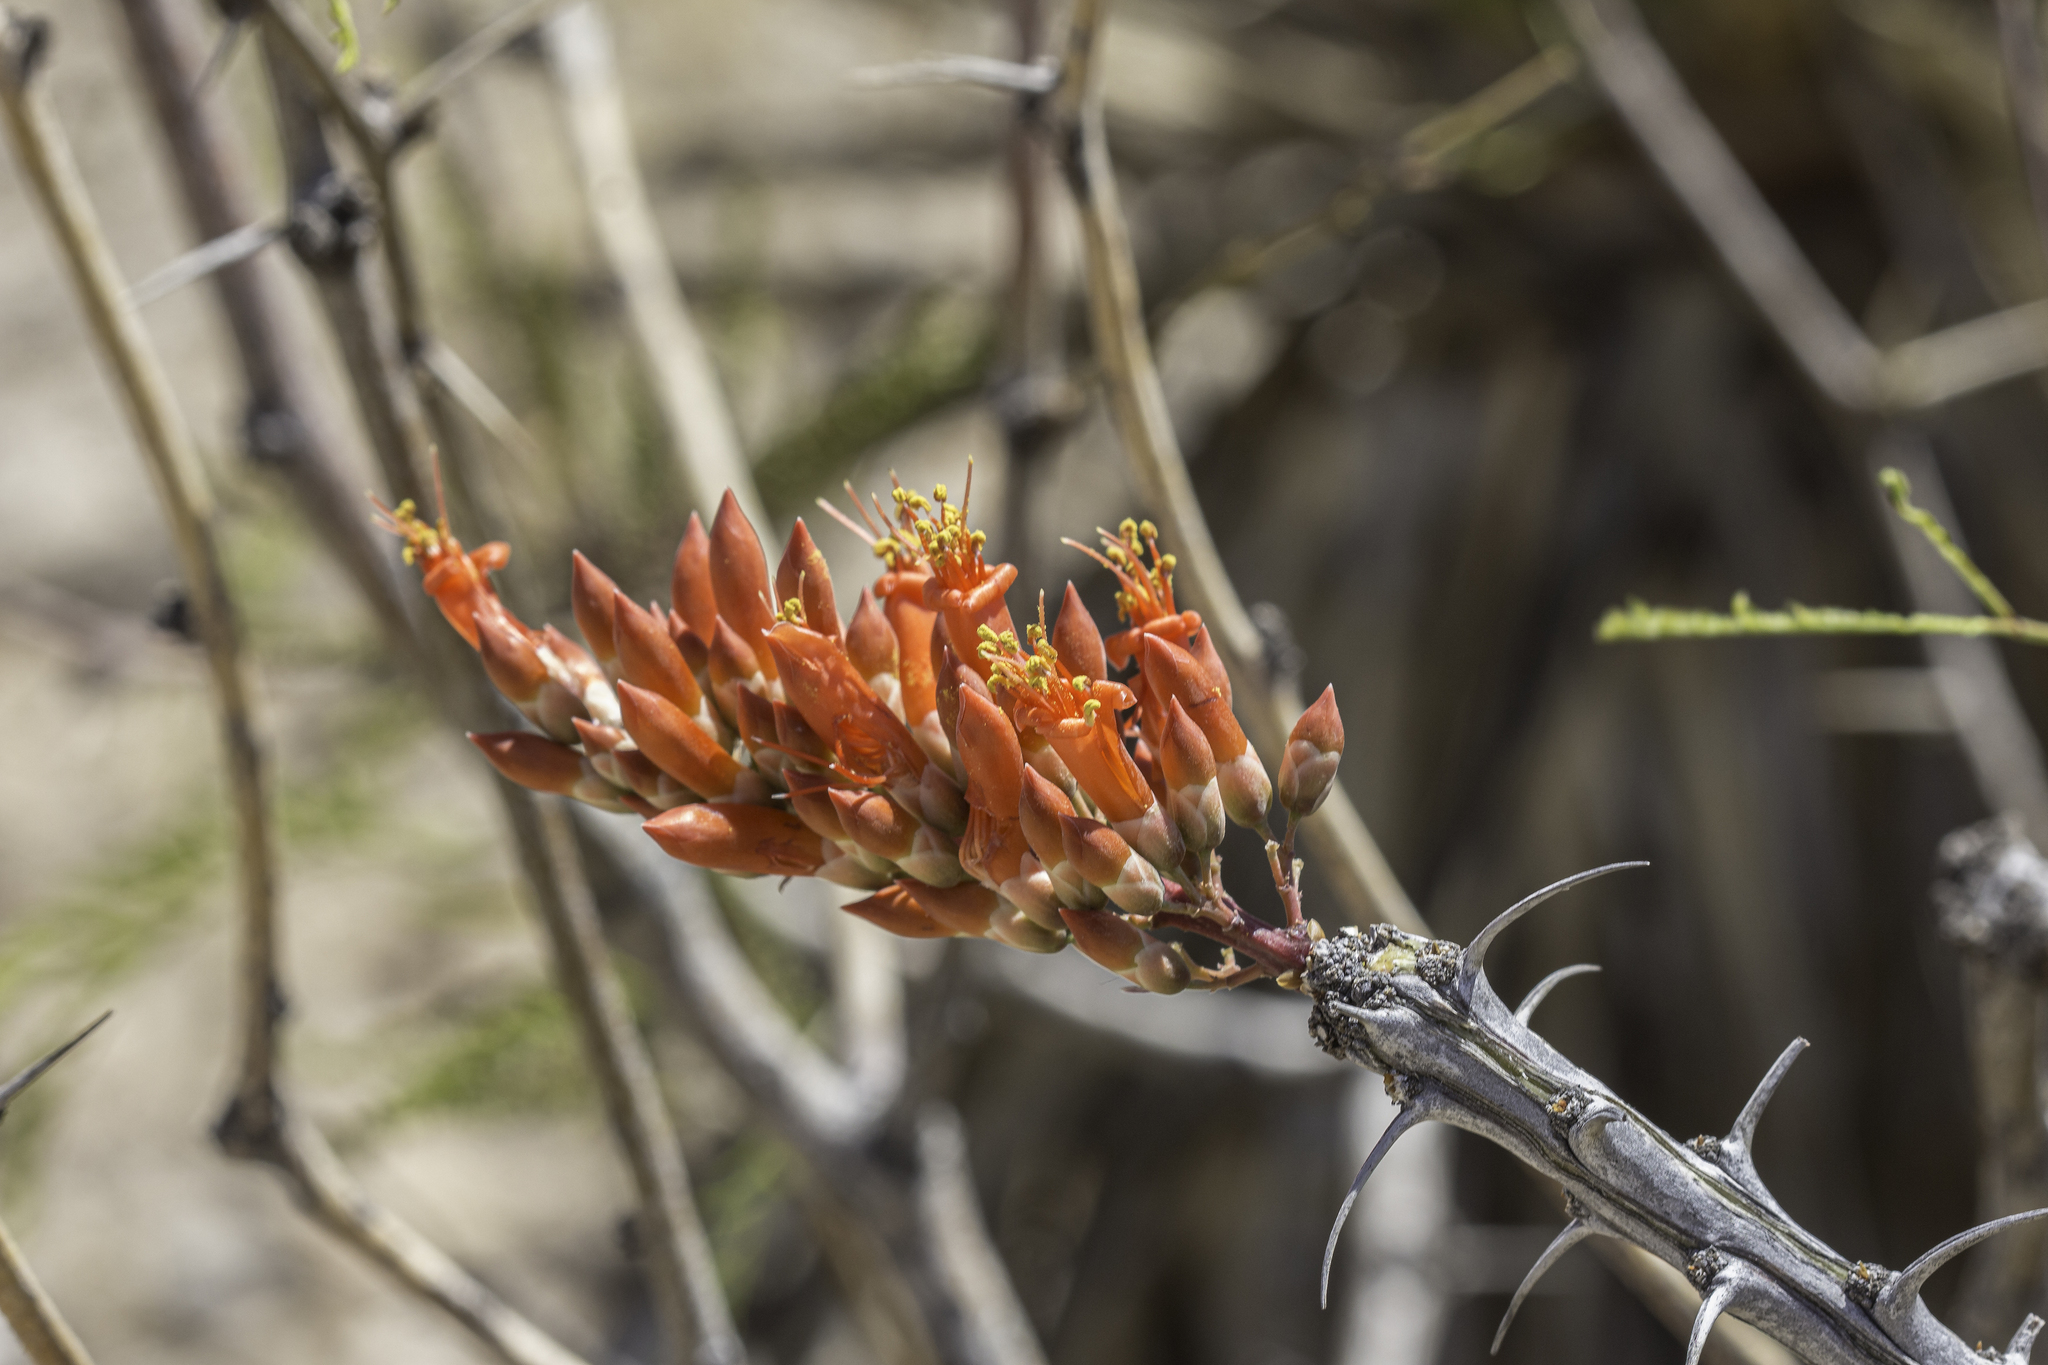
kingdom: Plantae
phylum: Tracheophyta
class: Magnoliopsida
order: Ericales
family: Fouquieriaceae
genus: Fouquieria
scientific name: Fouquieria splendens
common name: Vine-cactus
